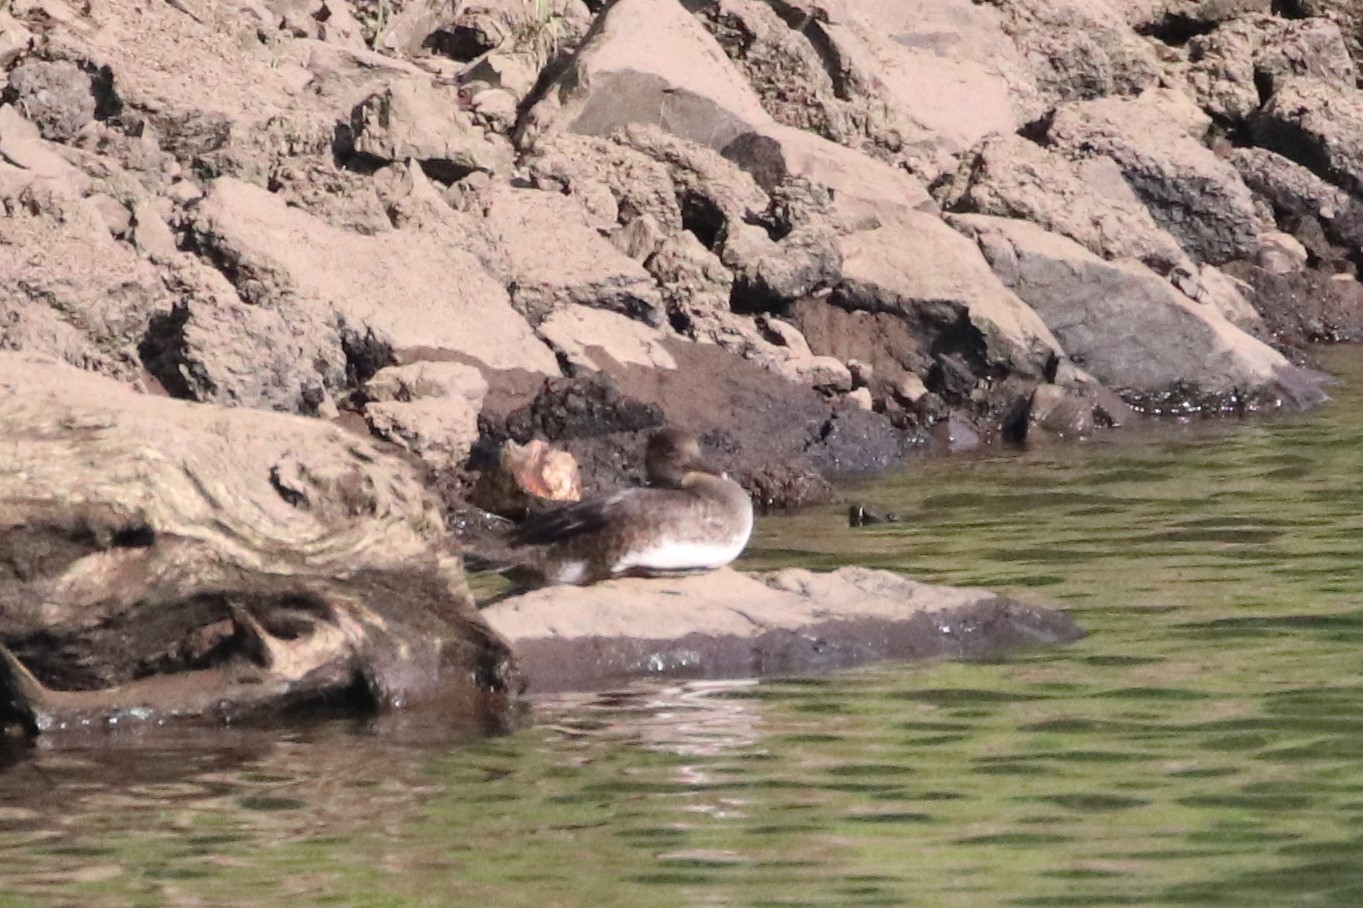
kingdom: Animalia
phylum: Chordata
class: Aves
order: Anseriformes
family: Anatidae
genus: Lophodytes
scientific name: Lophodytes cucullatus
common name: Hooded merganser
